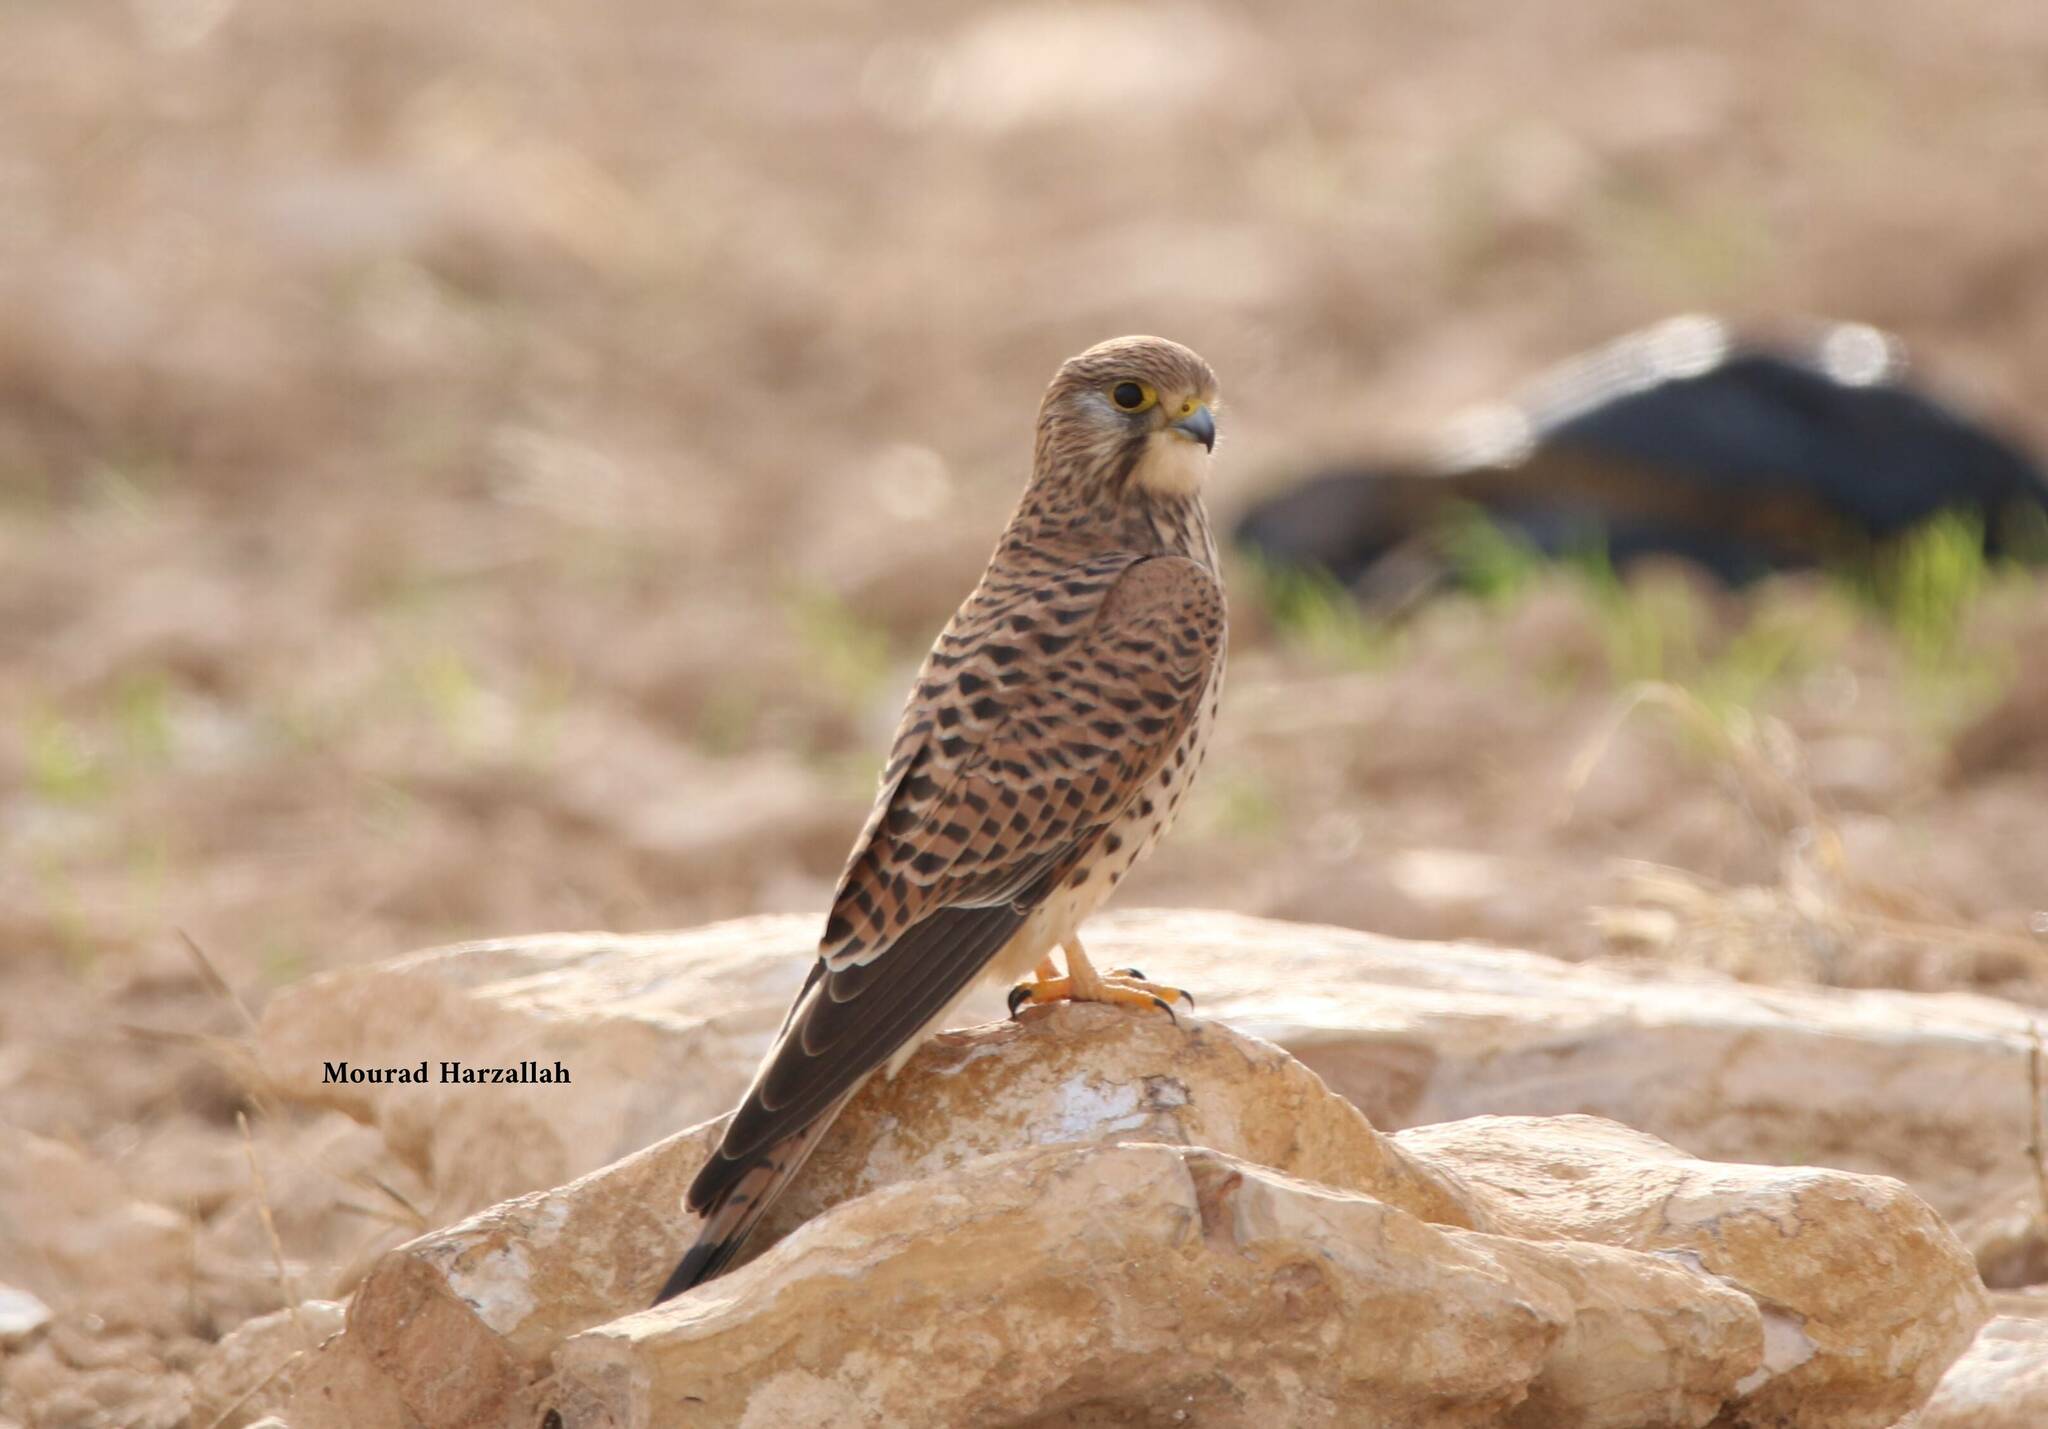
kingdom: Animalia
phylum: Chordata
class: Aves
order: Falconiformes
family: Falconidae
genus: Falco
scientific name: Falco tinnunculus
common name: Common kestrel
